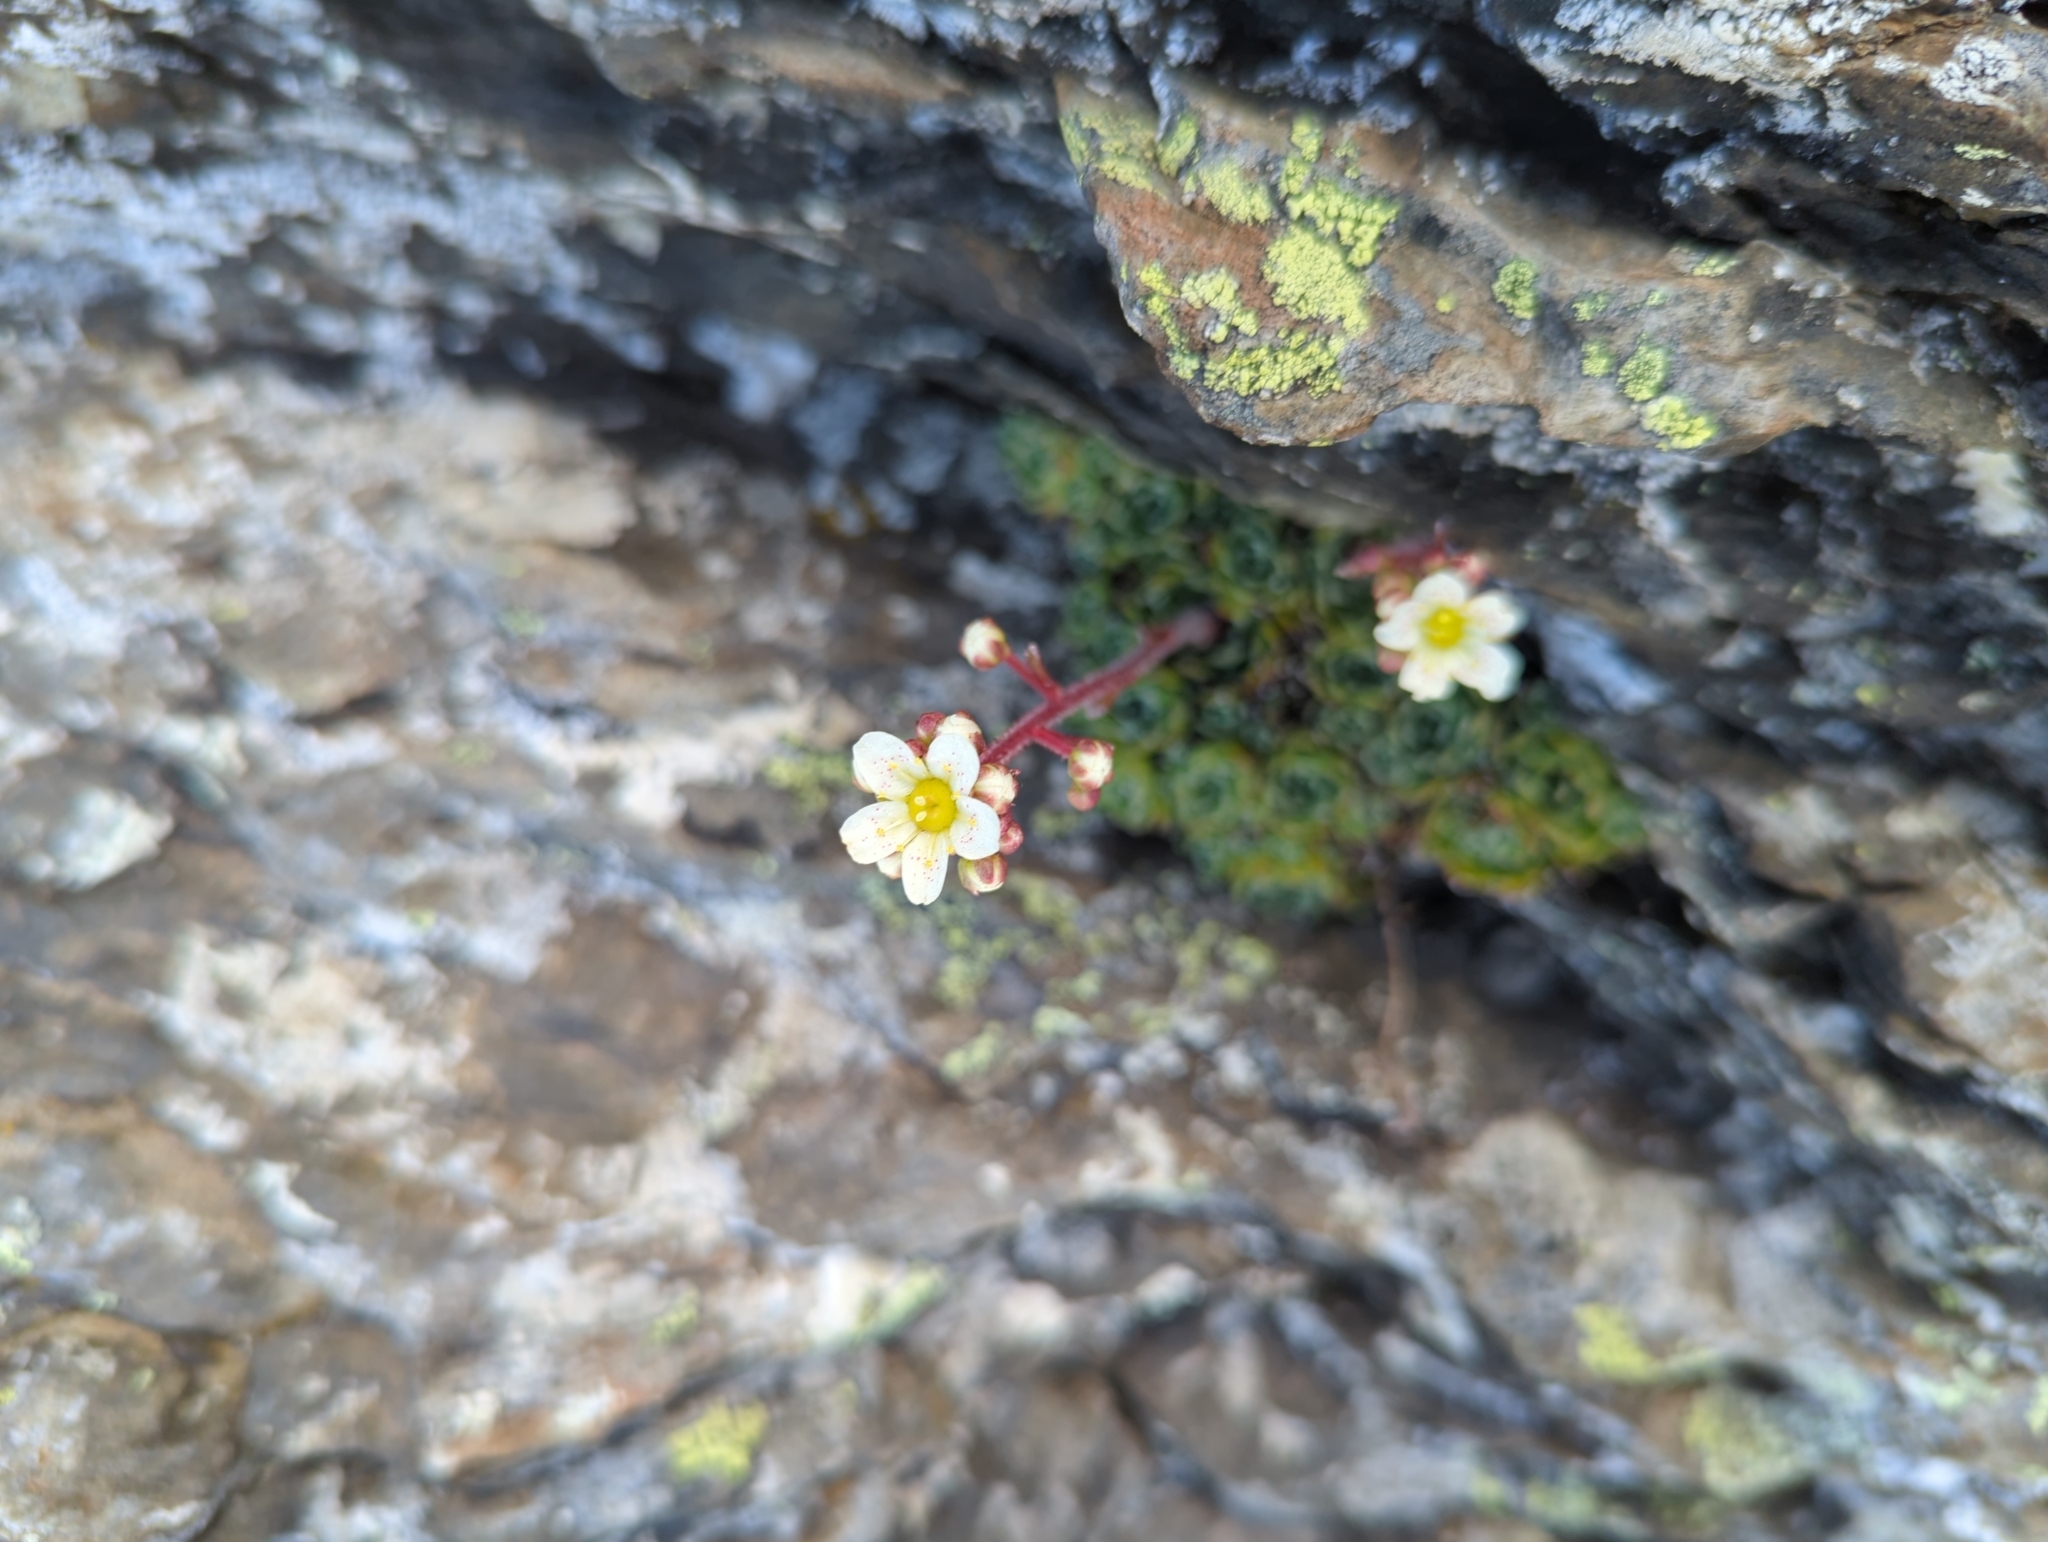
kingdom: Plantae
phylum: Tracheophyta
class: Magnoliopsida
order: Saxifragales
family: Saxifragaceae
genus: Saxifraga
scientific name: Saxifraga paniculata
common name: Livelong saxifrage
